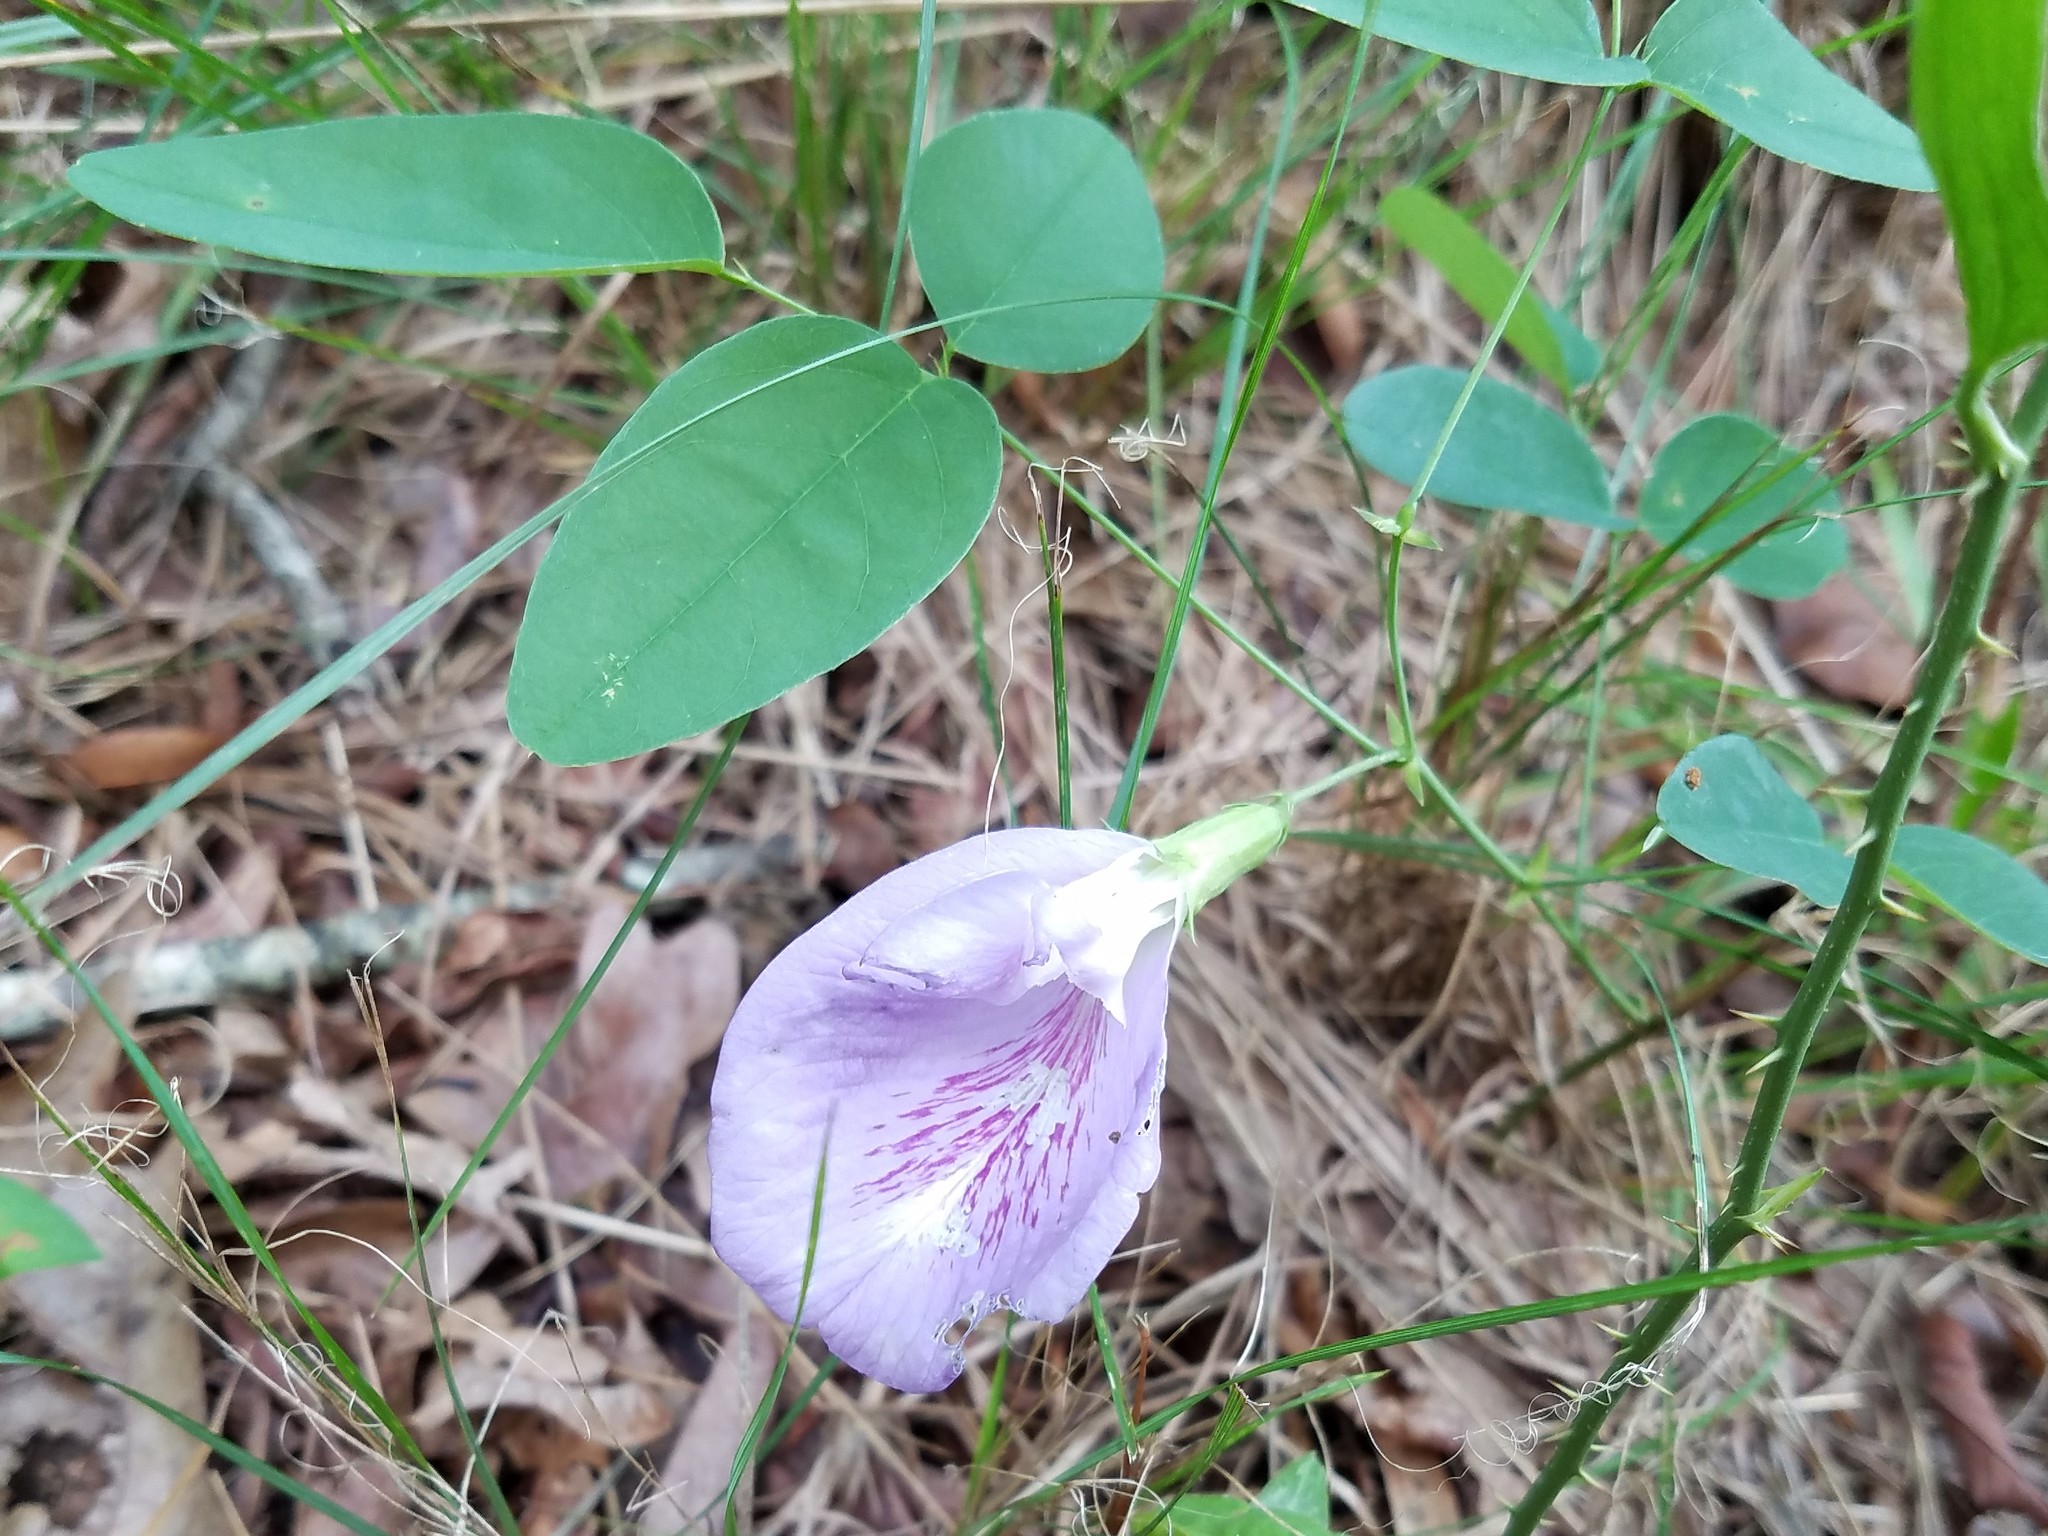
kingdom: Plantae
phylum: Tracheophyta
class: Magnoliopsida
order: Fabales
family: Fabaceae
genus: Clitoria
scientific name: Clitoria mariana
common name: Butterfly-pea
